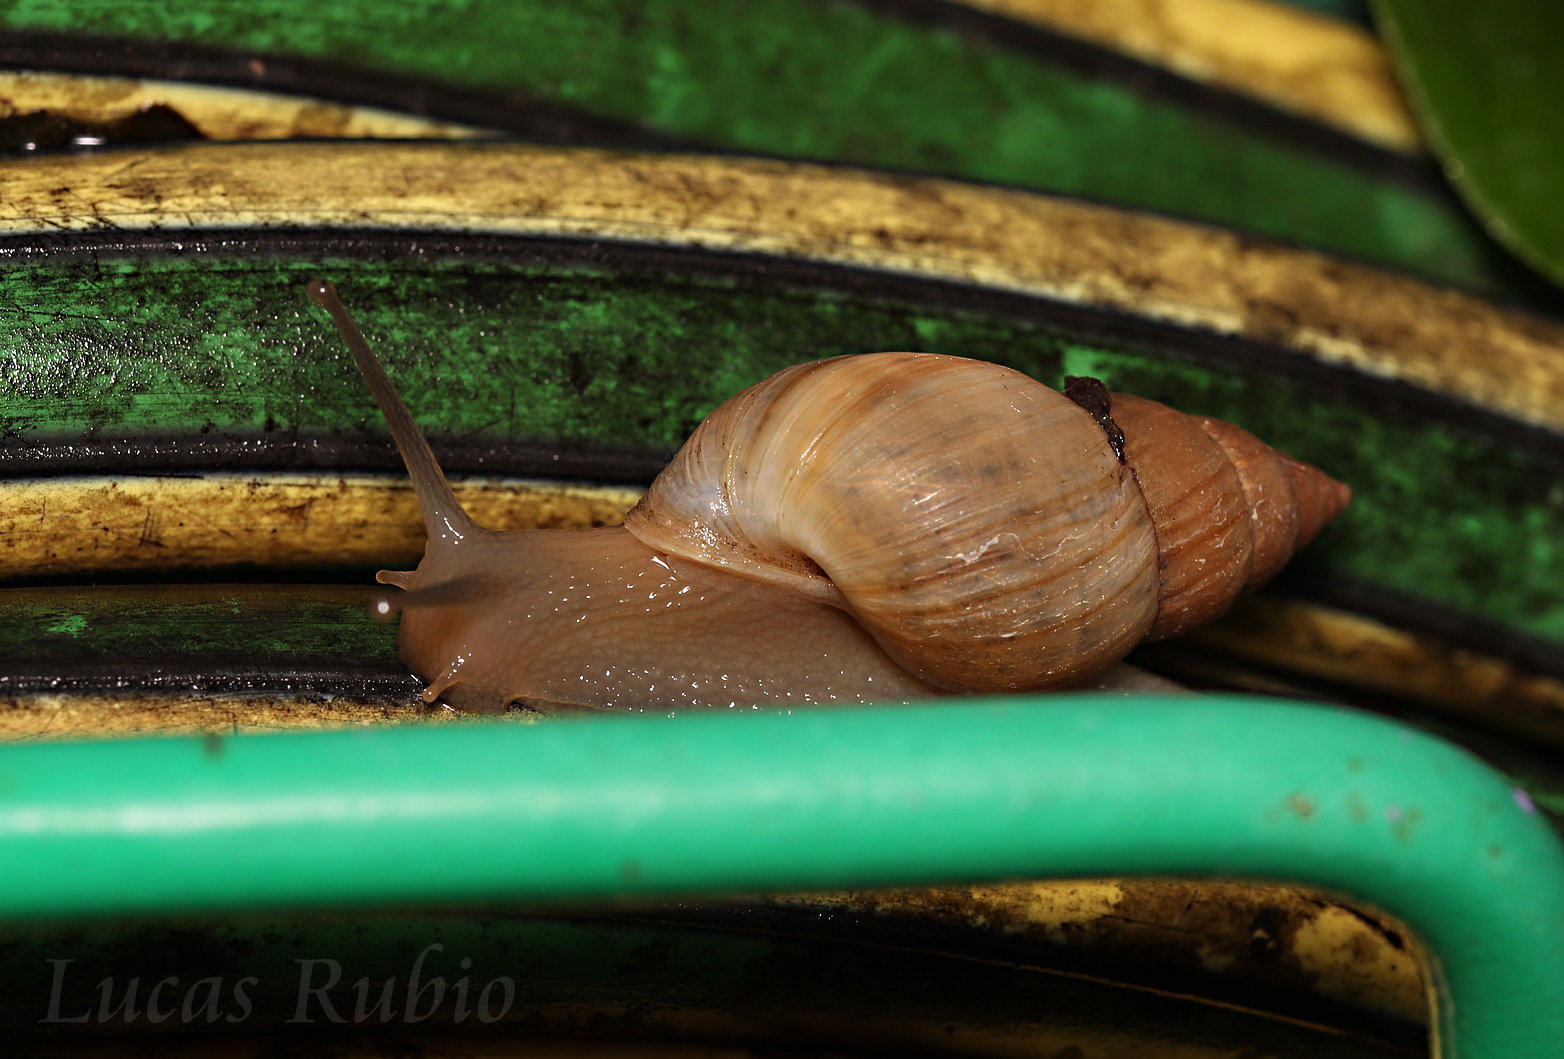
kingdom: Animalia
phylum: Mollusca
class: Gastropoda
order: Stylommatophora
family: Bulimulidae
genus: Bulimulus
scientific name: Bulimulus bonariensis
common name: Snail
